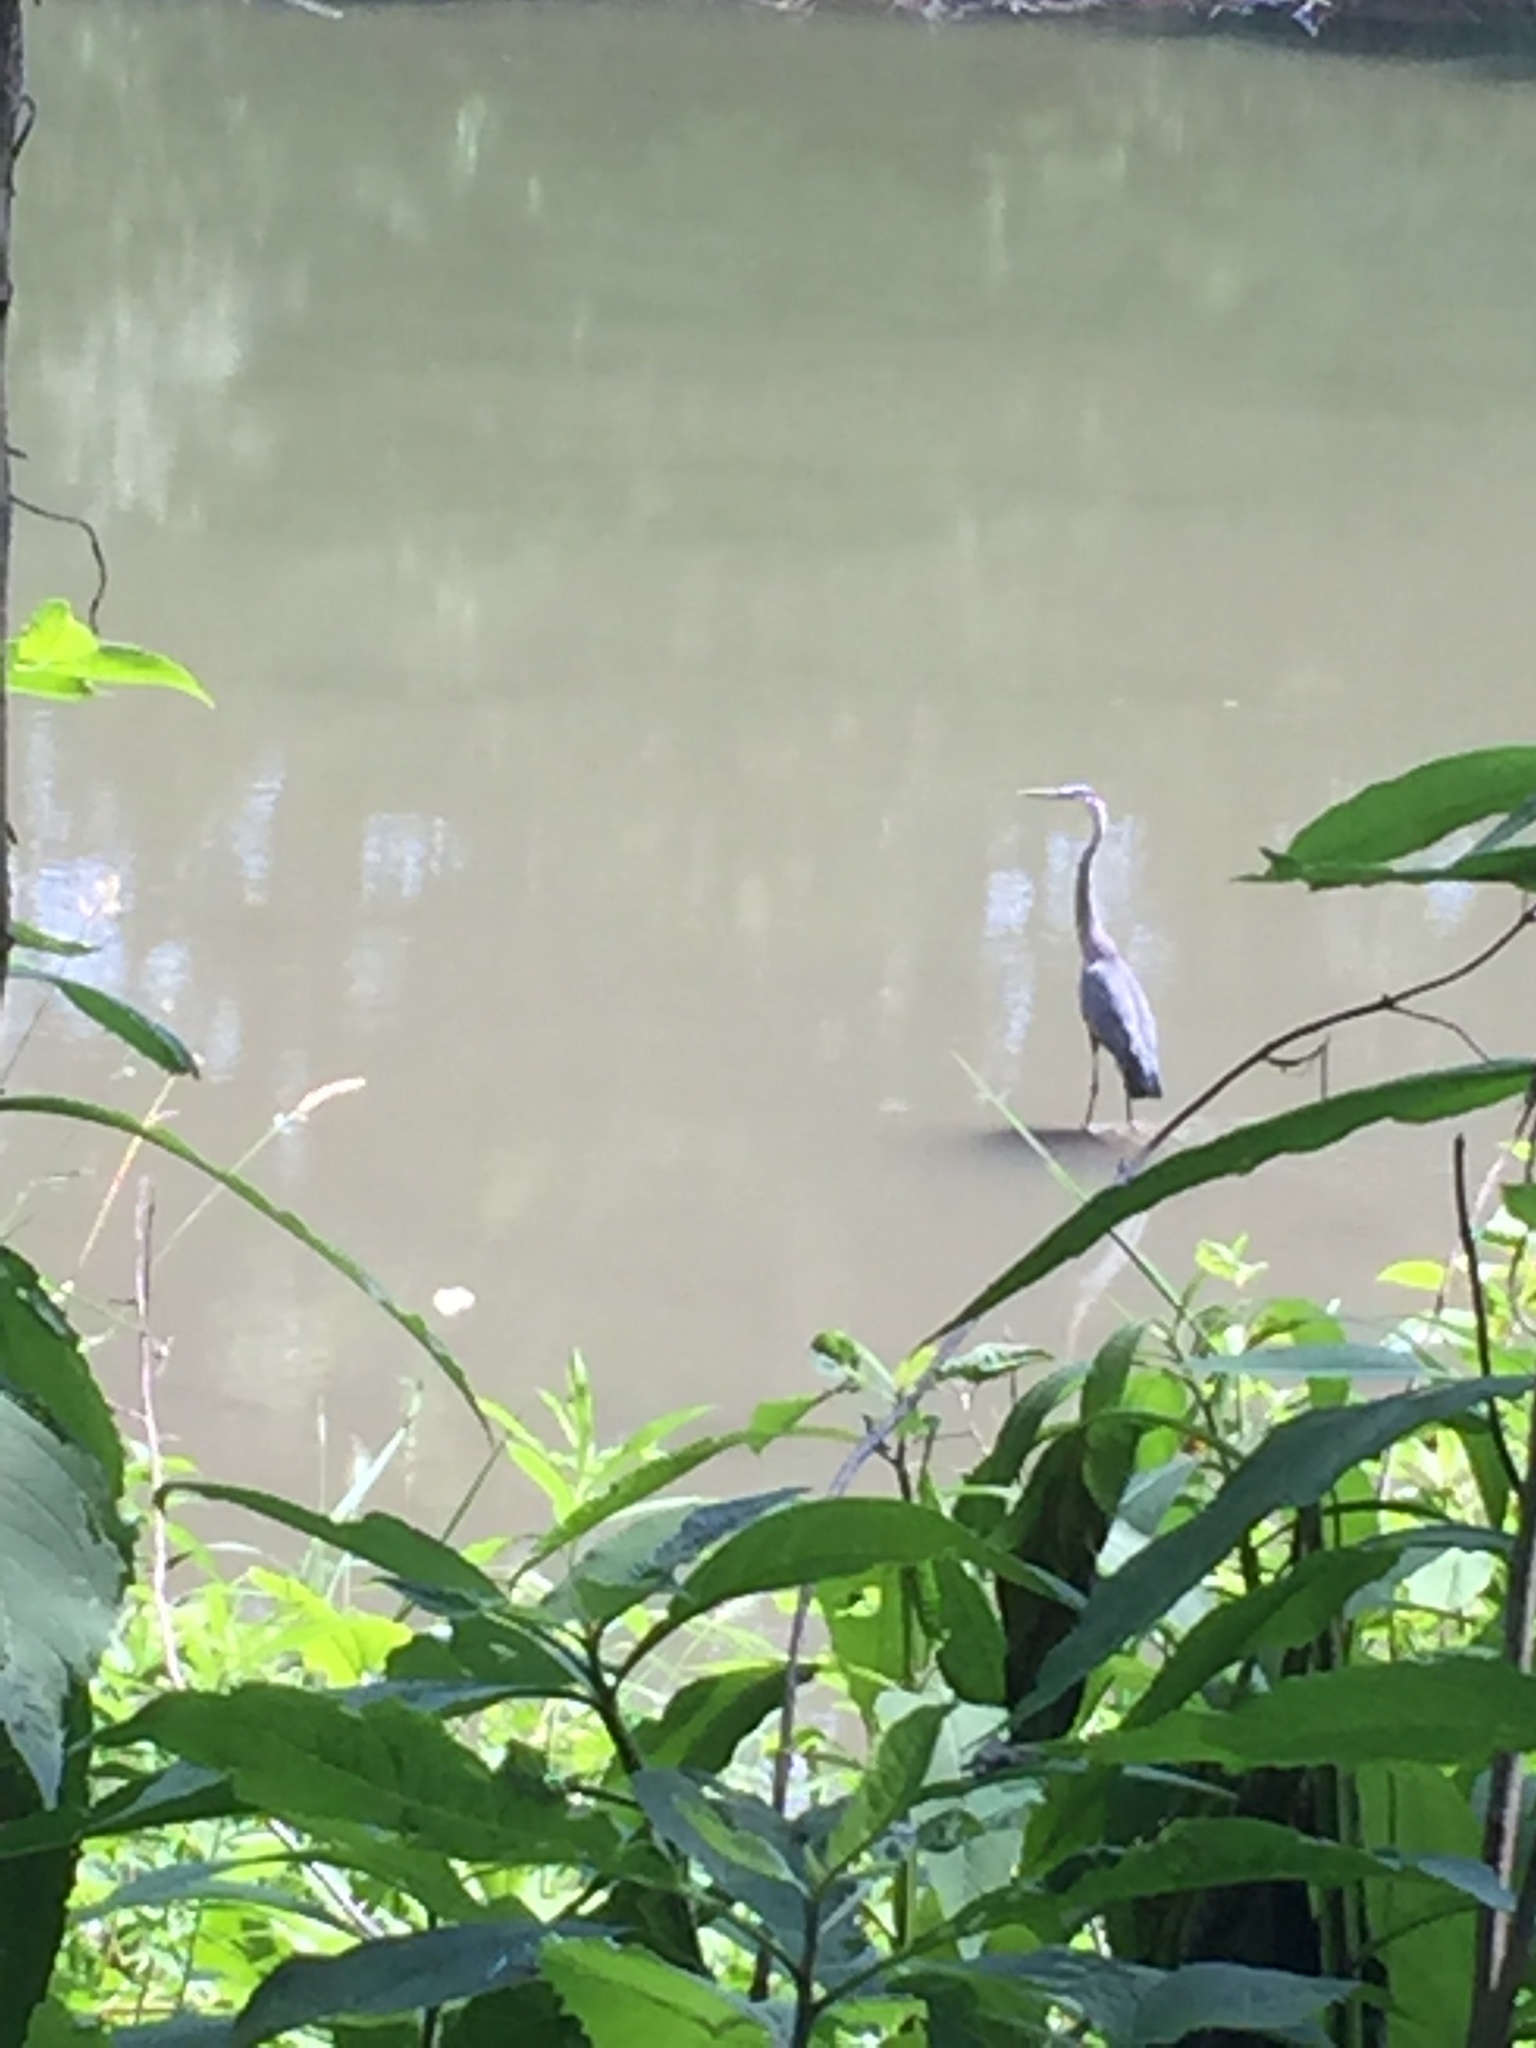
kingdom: Animalia
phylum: Chordata
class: Aves
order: Pelecaniformes
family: Ardeidae
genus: Ardea
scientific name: Ardea herodias
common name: Great blue heron
